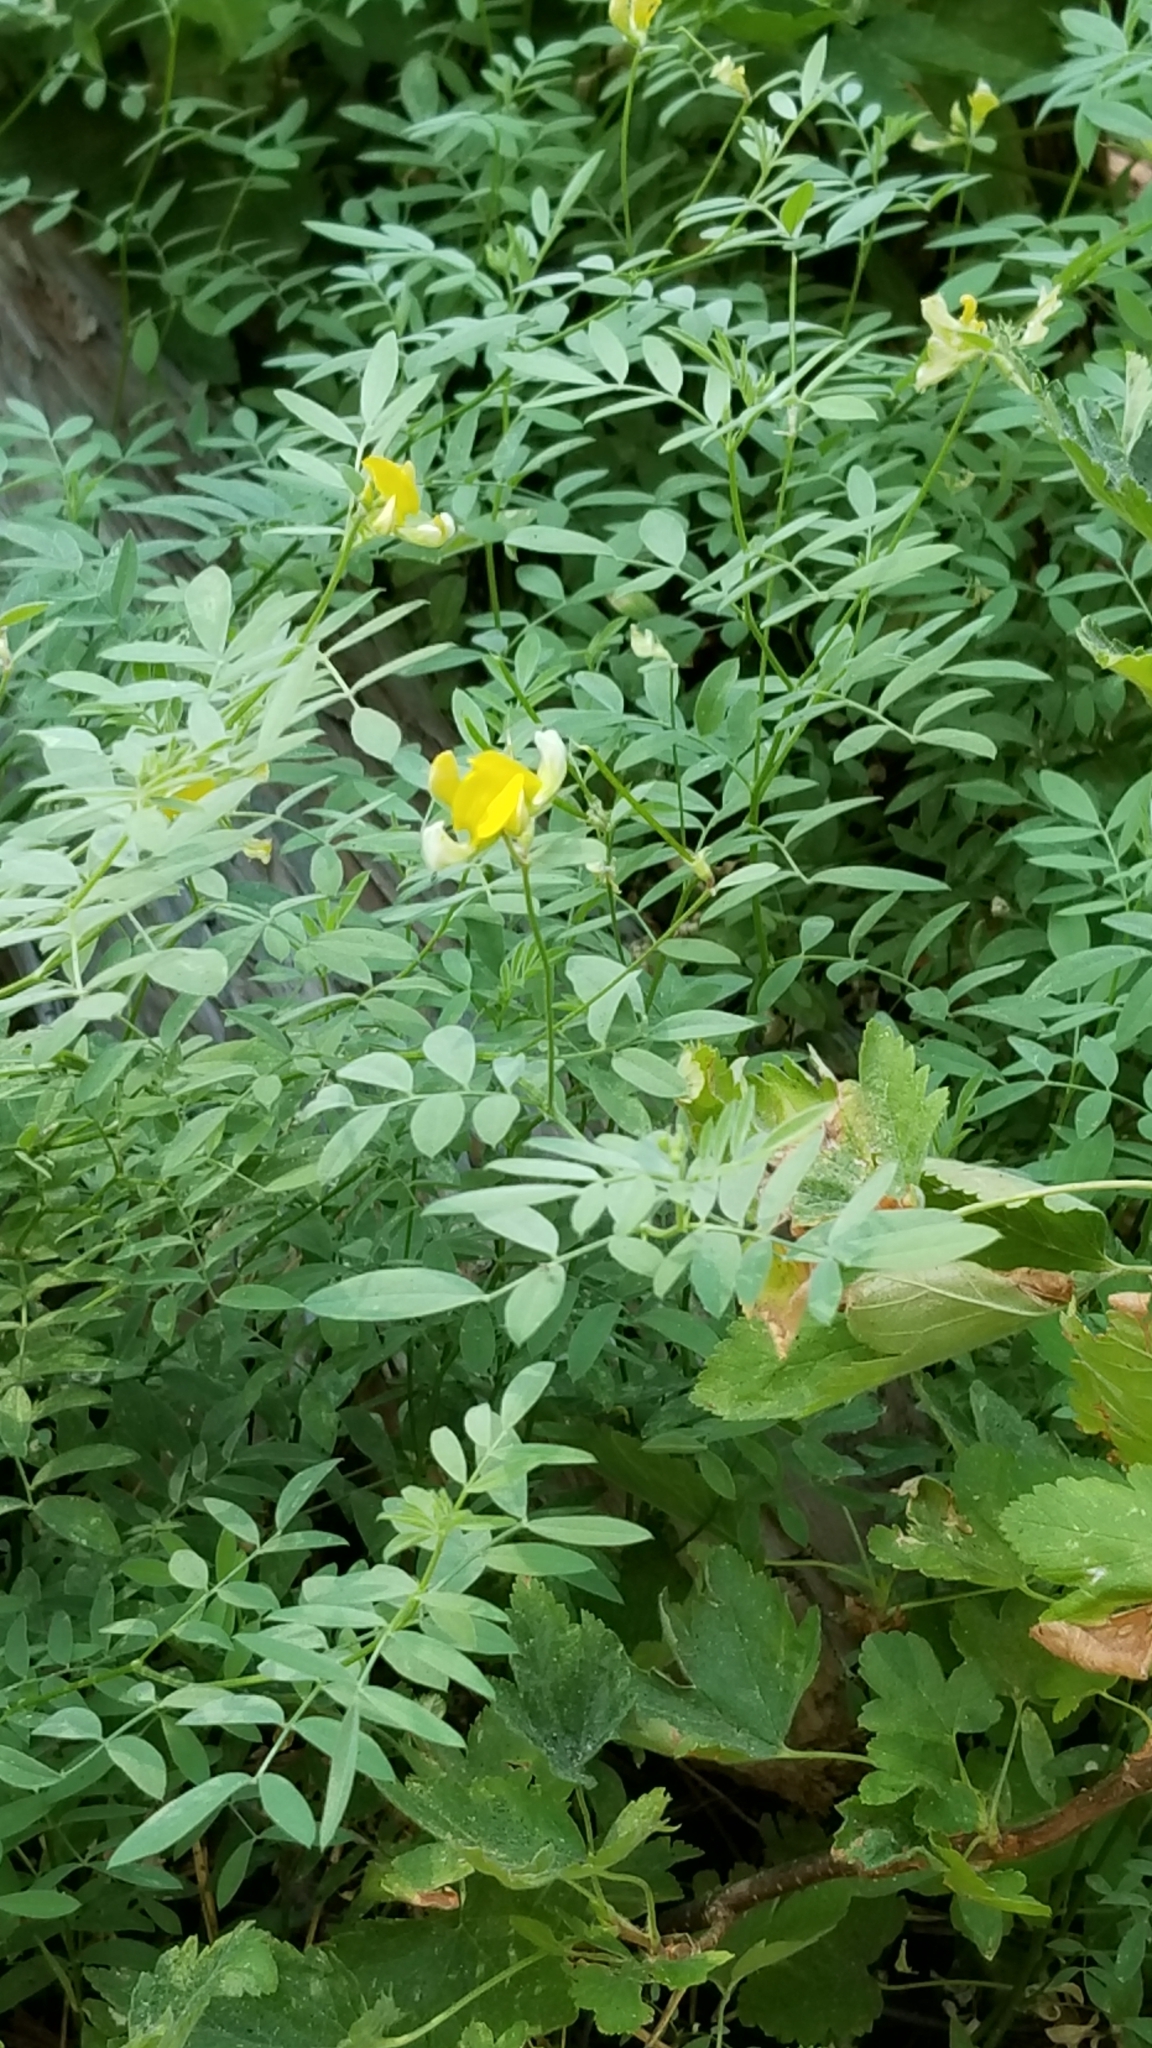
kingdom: Plantae
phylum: Tracheophyta
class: Magnoliopsida
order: Fabales
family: Fabaceae
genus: Hosackia
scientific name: Hosackia oblongifolia
